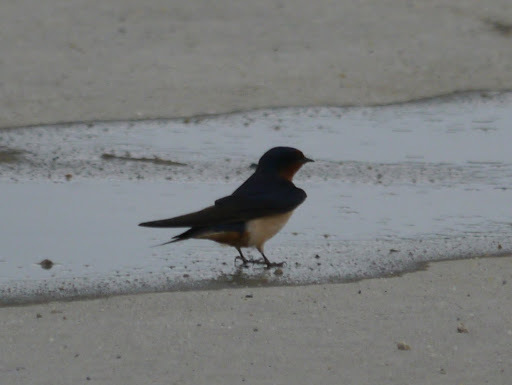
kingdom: Animalia
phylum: Chordata
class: Aves
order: Passeriformes
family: Hirundinidae
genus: Hirundo
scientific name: Hirundo rustica
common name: Barn swallow
